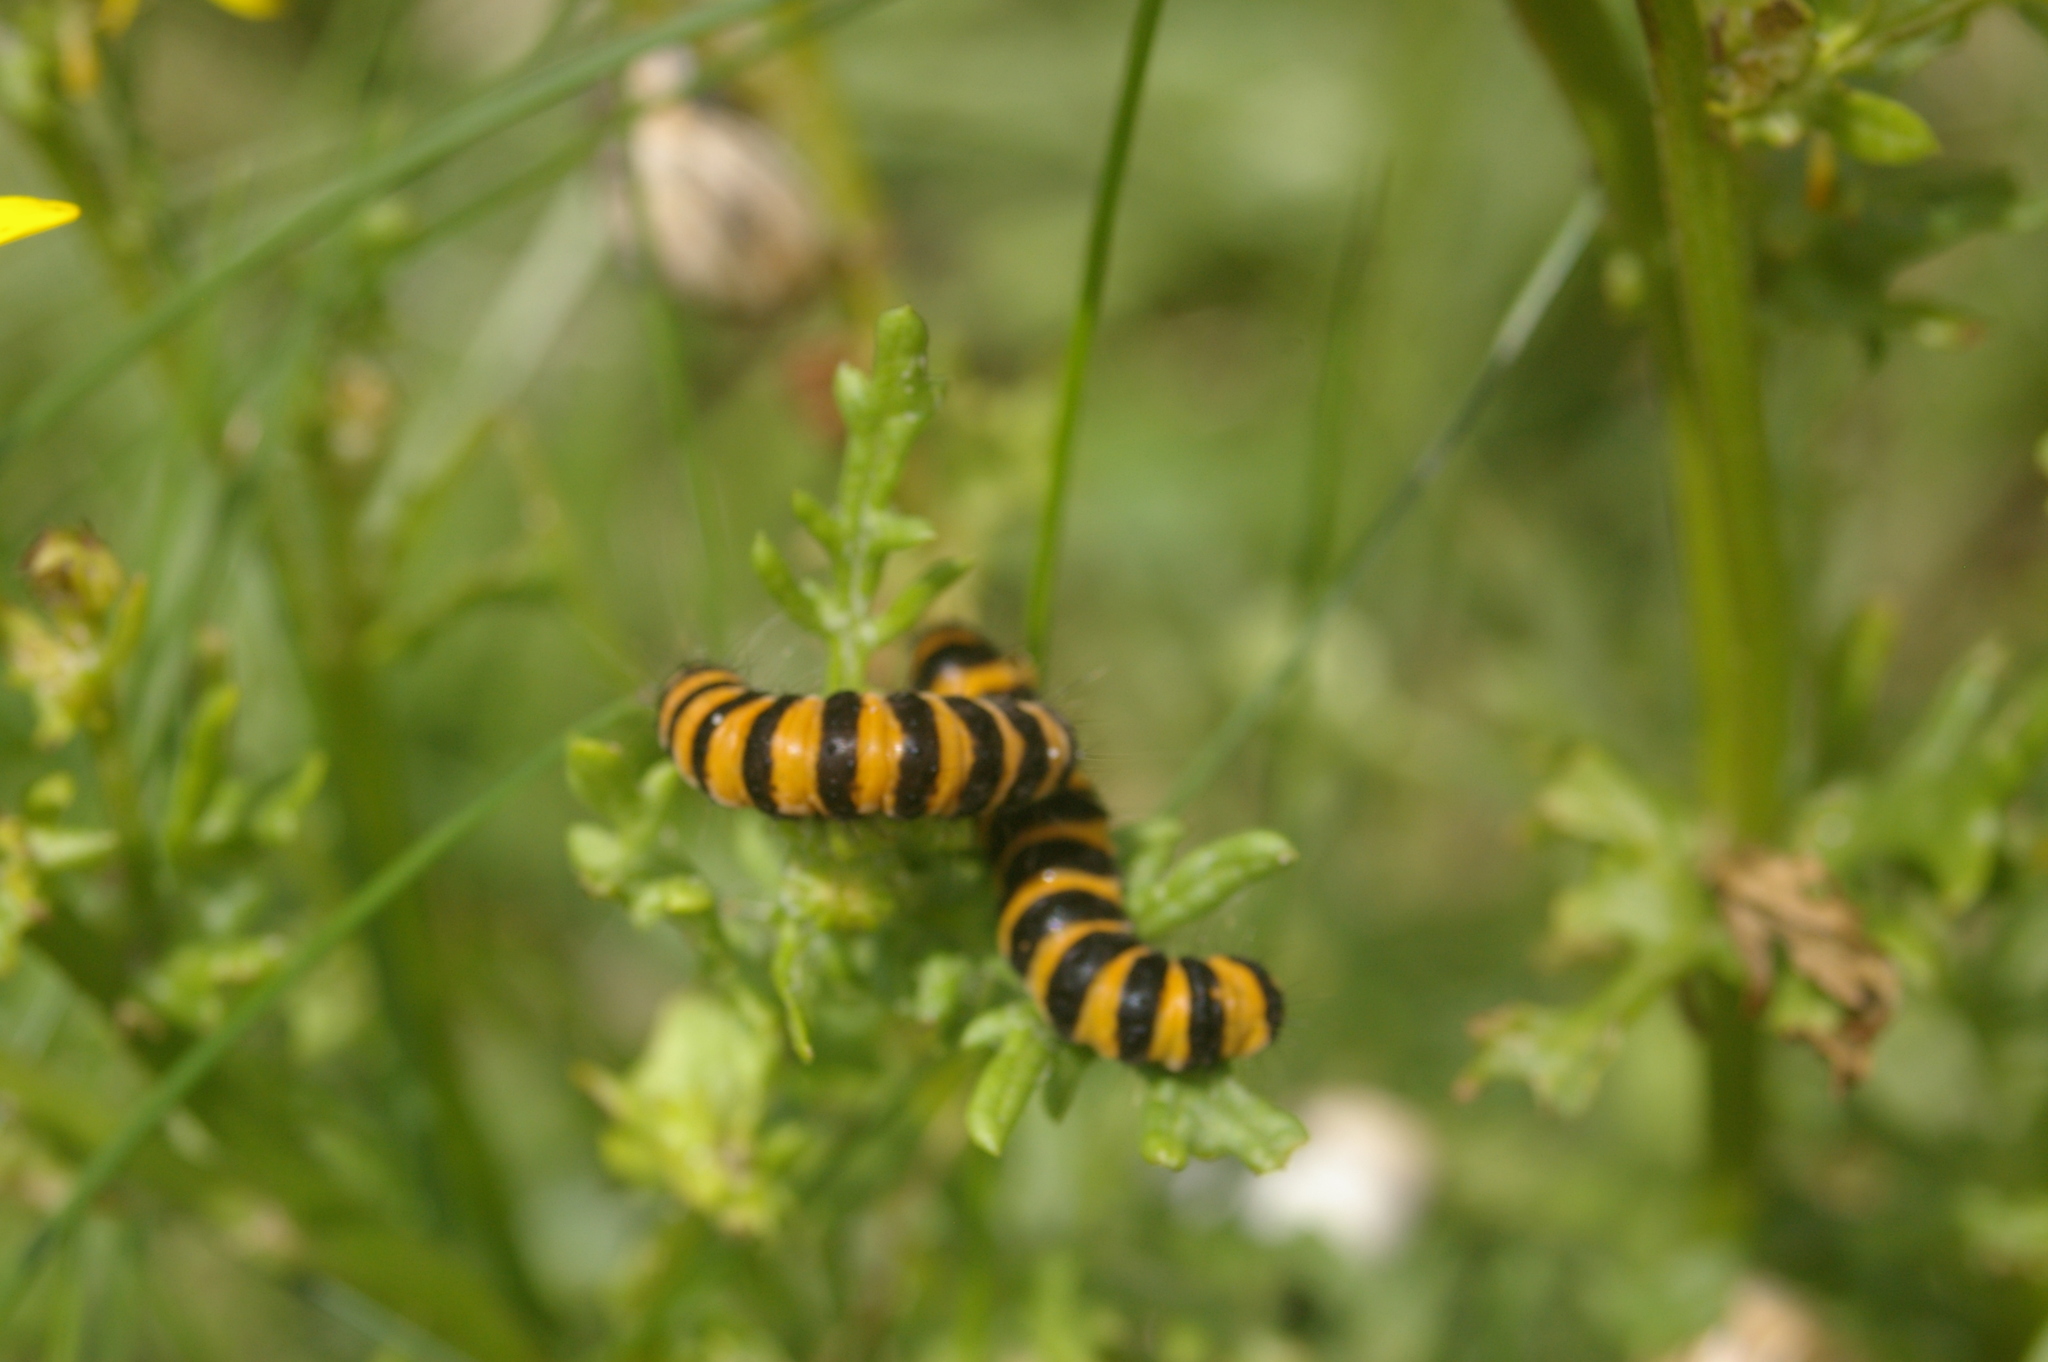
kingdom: Animalia
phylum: Arthropoda
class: Insecta
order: Lepidoptera
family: Erebidae
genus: Tyria
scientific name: Tyria jacobaeae
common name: Cinnabar
